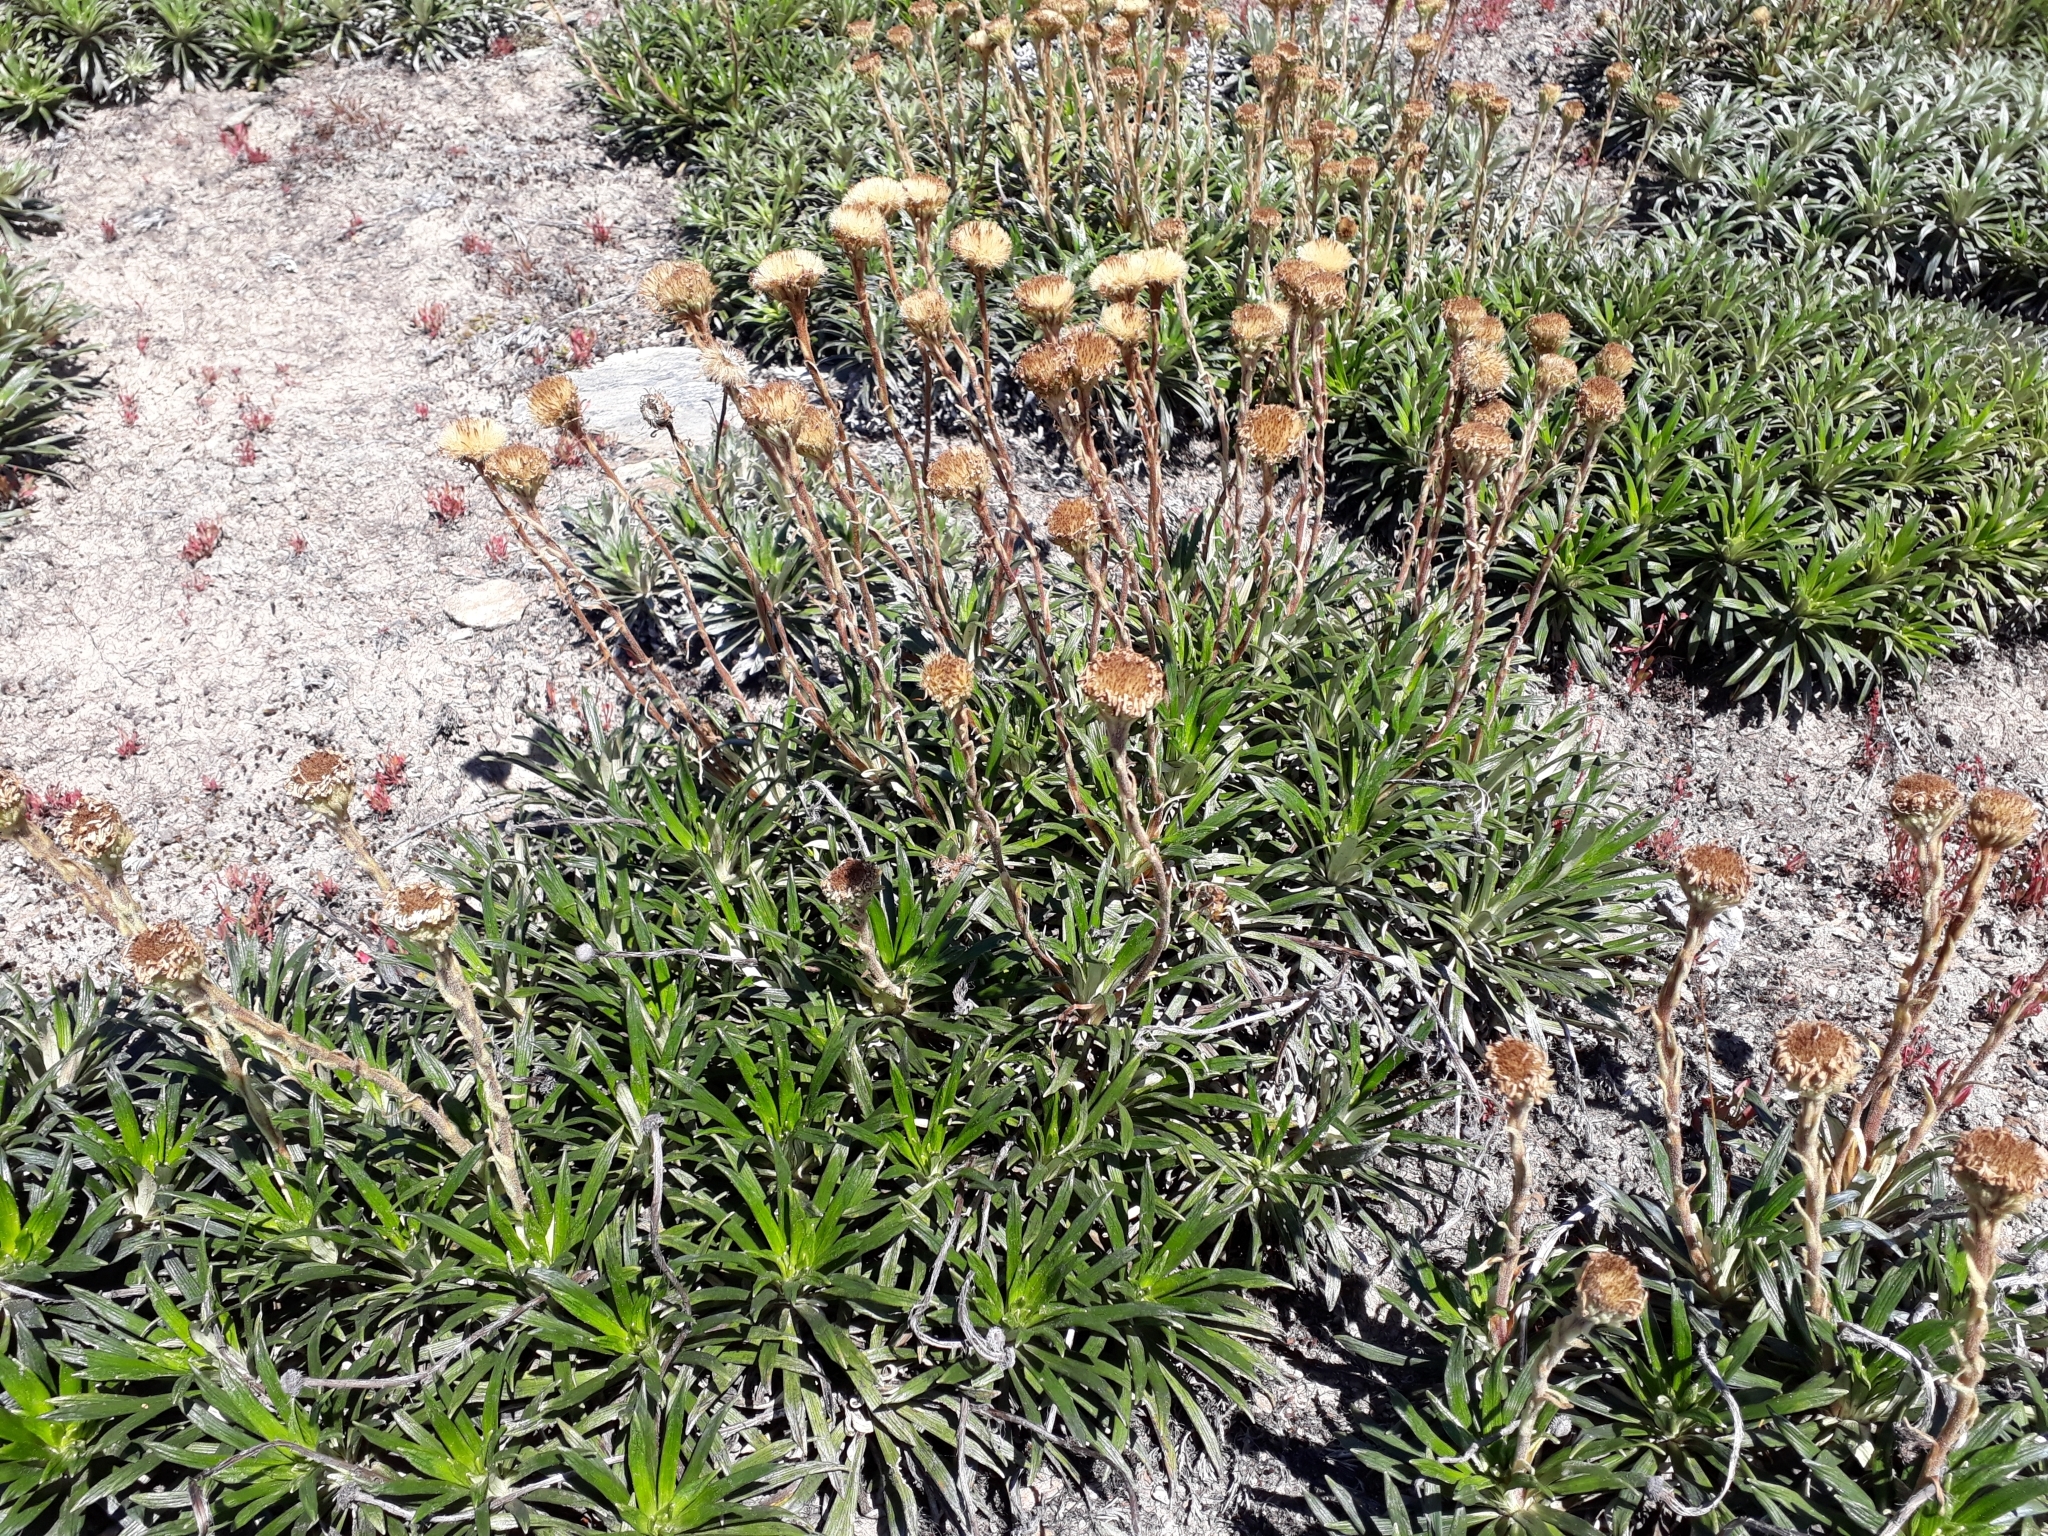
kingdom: Plantae
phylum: Tracheophyta
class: Magnoliopsida
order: Asterales
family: Asteraceae
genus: Celmisia
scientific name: Celmisia viscosa
